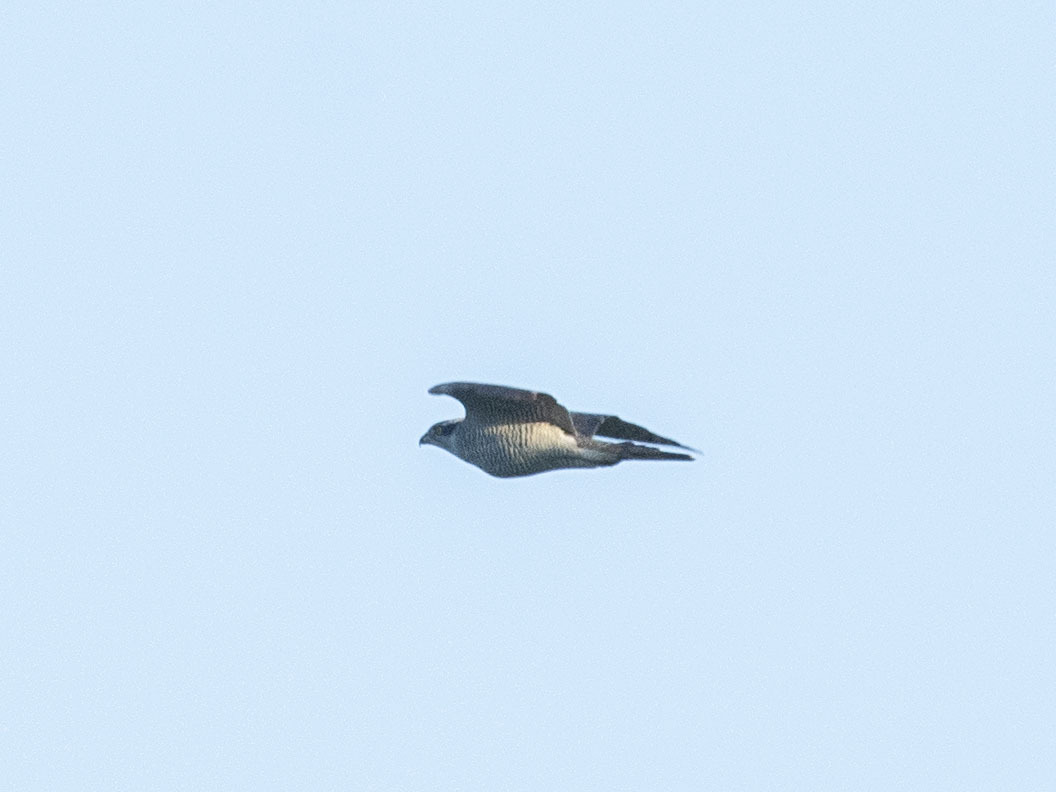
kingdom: Animalia
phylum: Chordata
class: Aves
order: Accipitriformes
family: Accipitridae
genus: Accipiter
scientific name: Accipiter gentilis
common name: Northern goshawk
